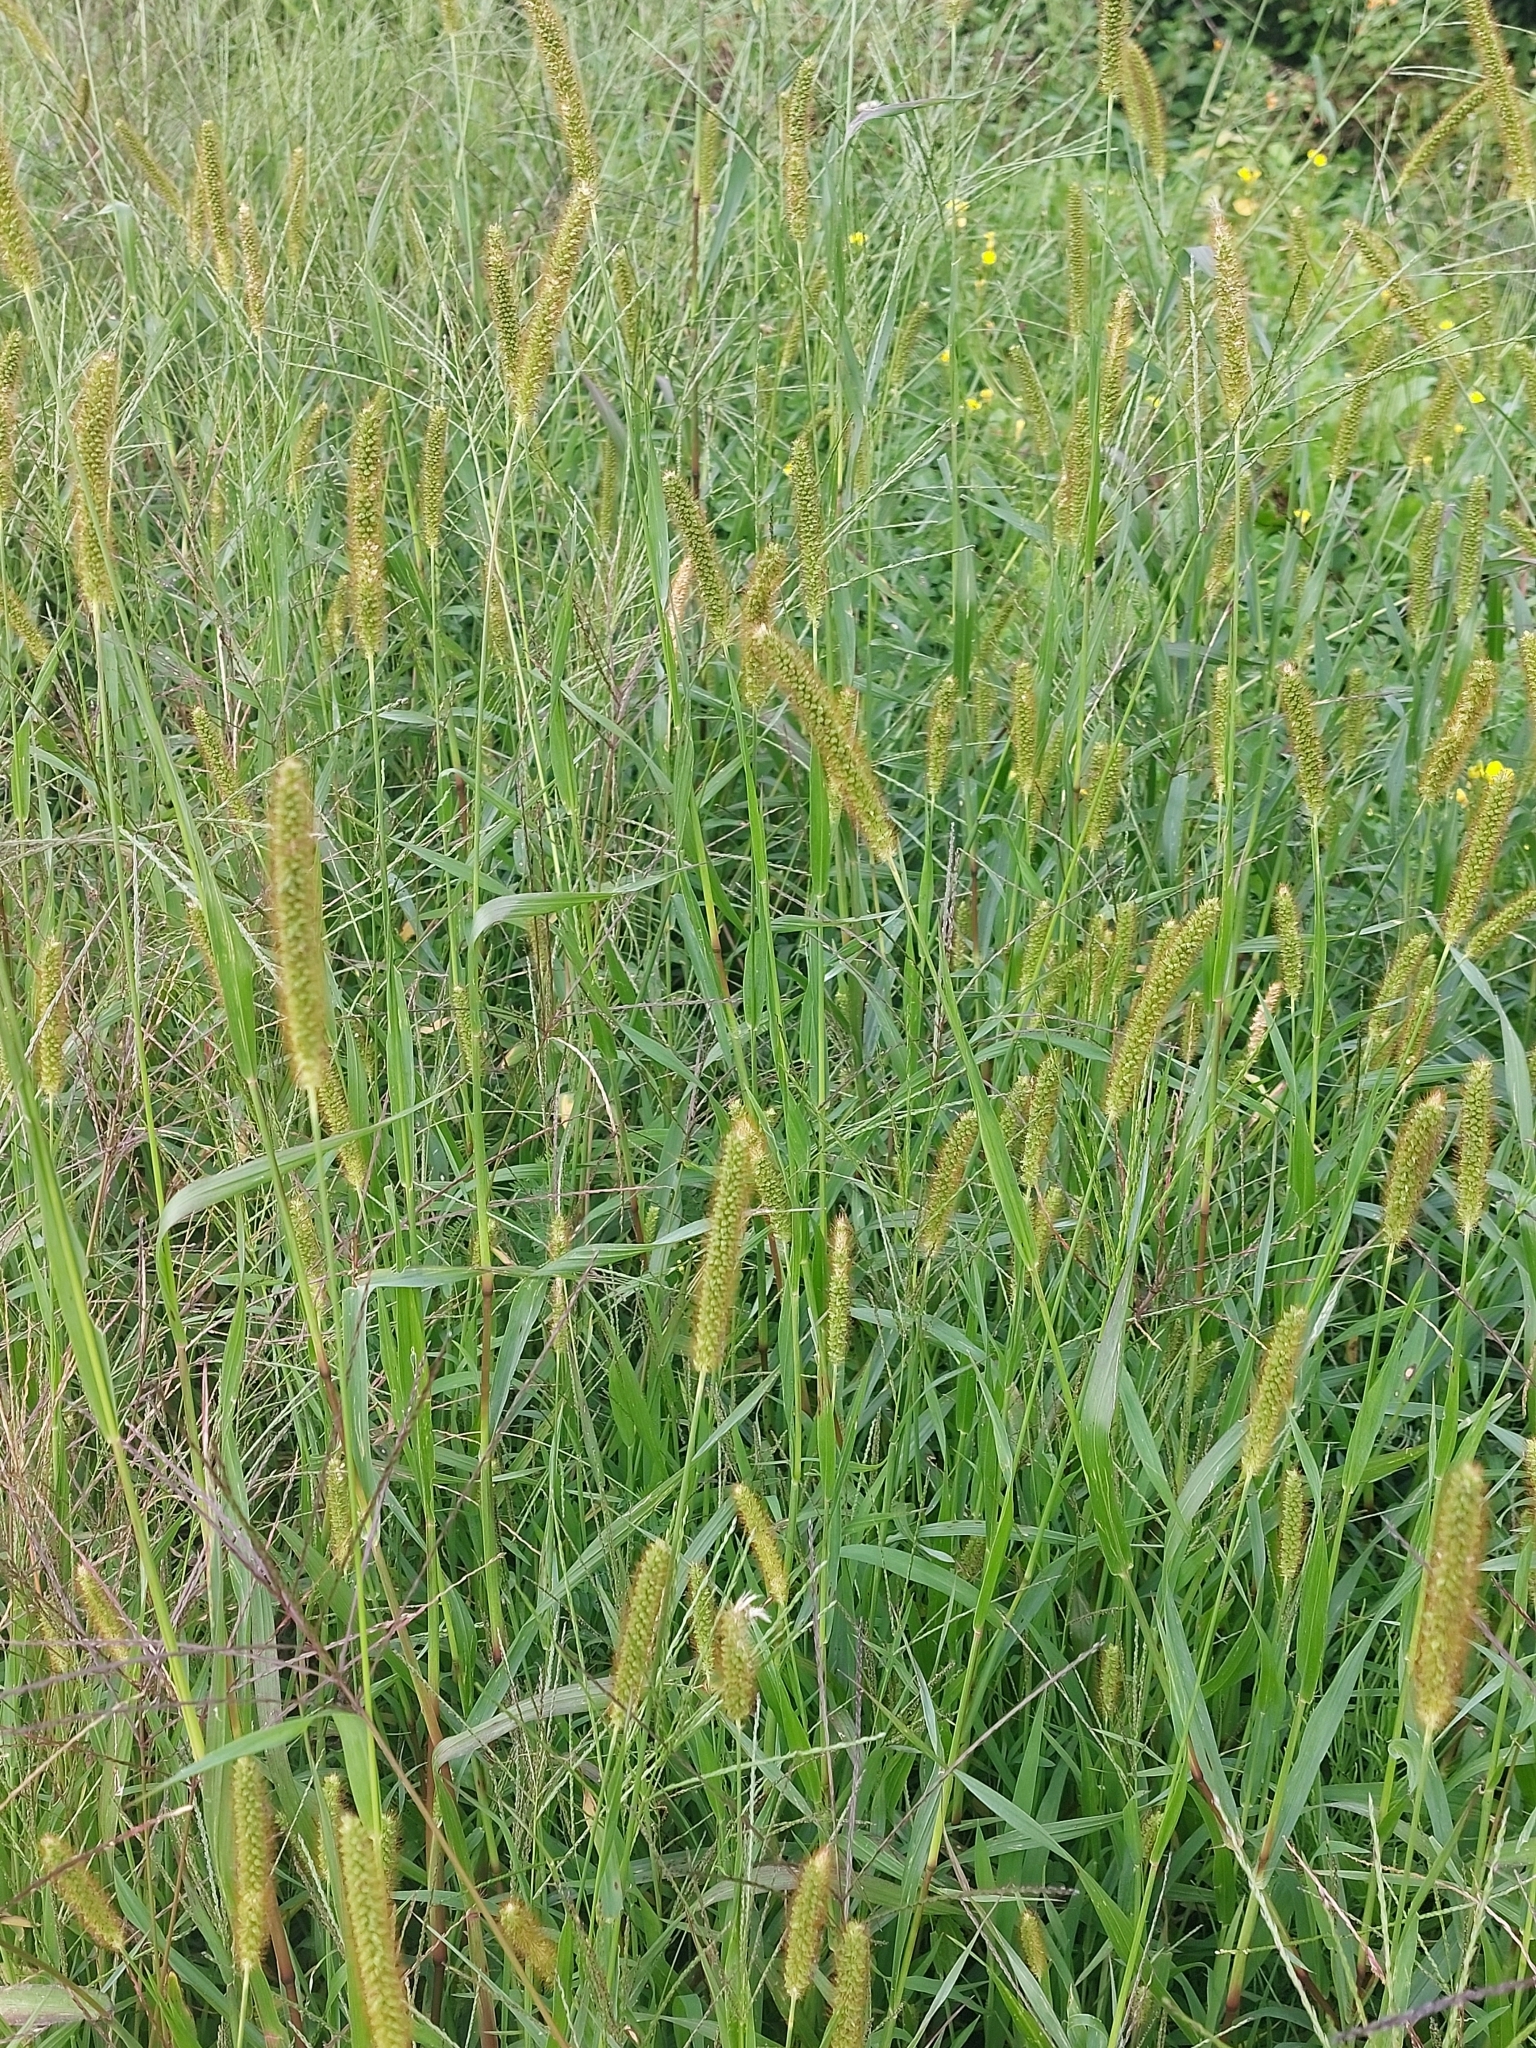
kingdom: Plantae
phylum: Tracheophyta
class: Liliopsida
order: Poales
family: Poaceae
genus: Setaria
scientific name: Setaria pumila
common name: Yellow bristle-grass
